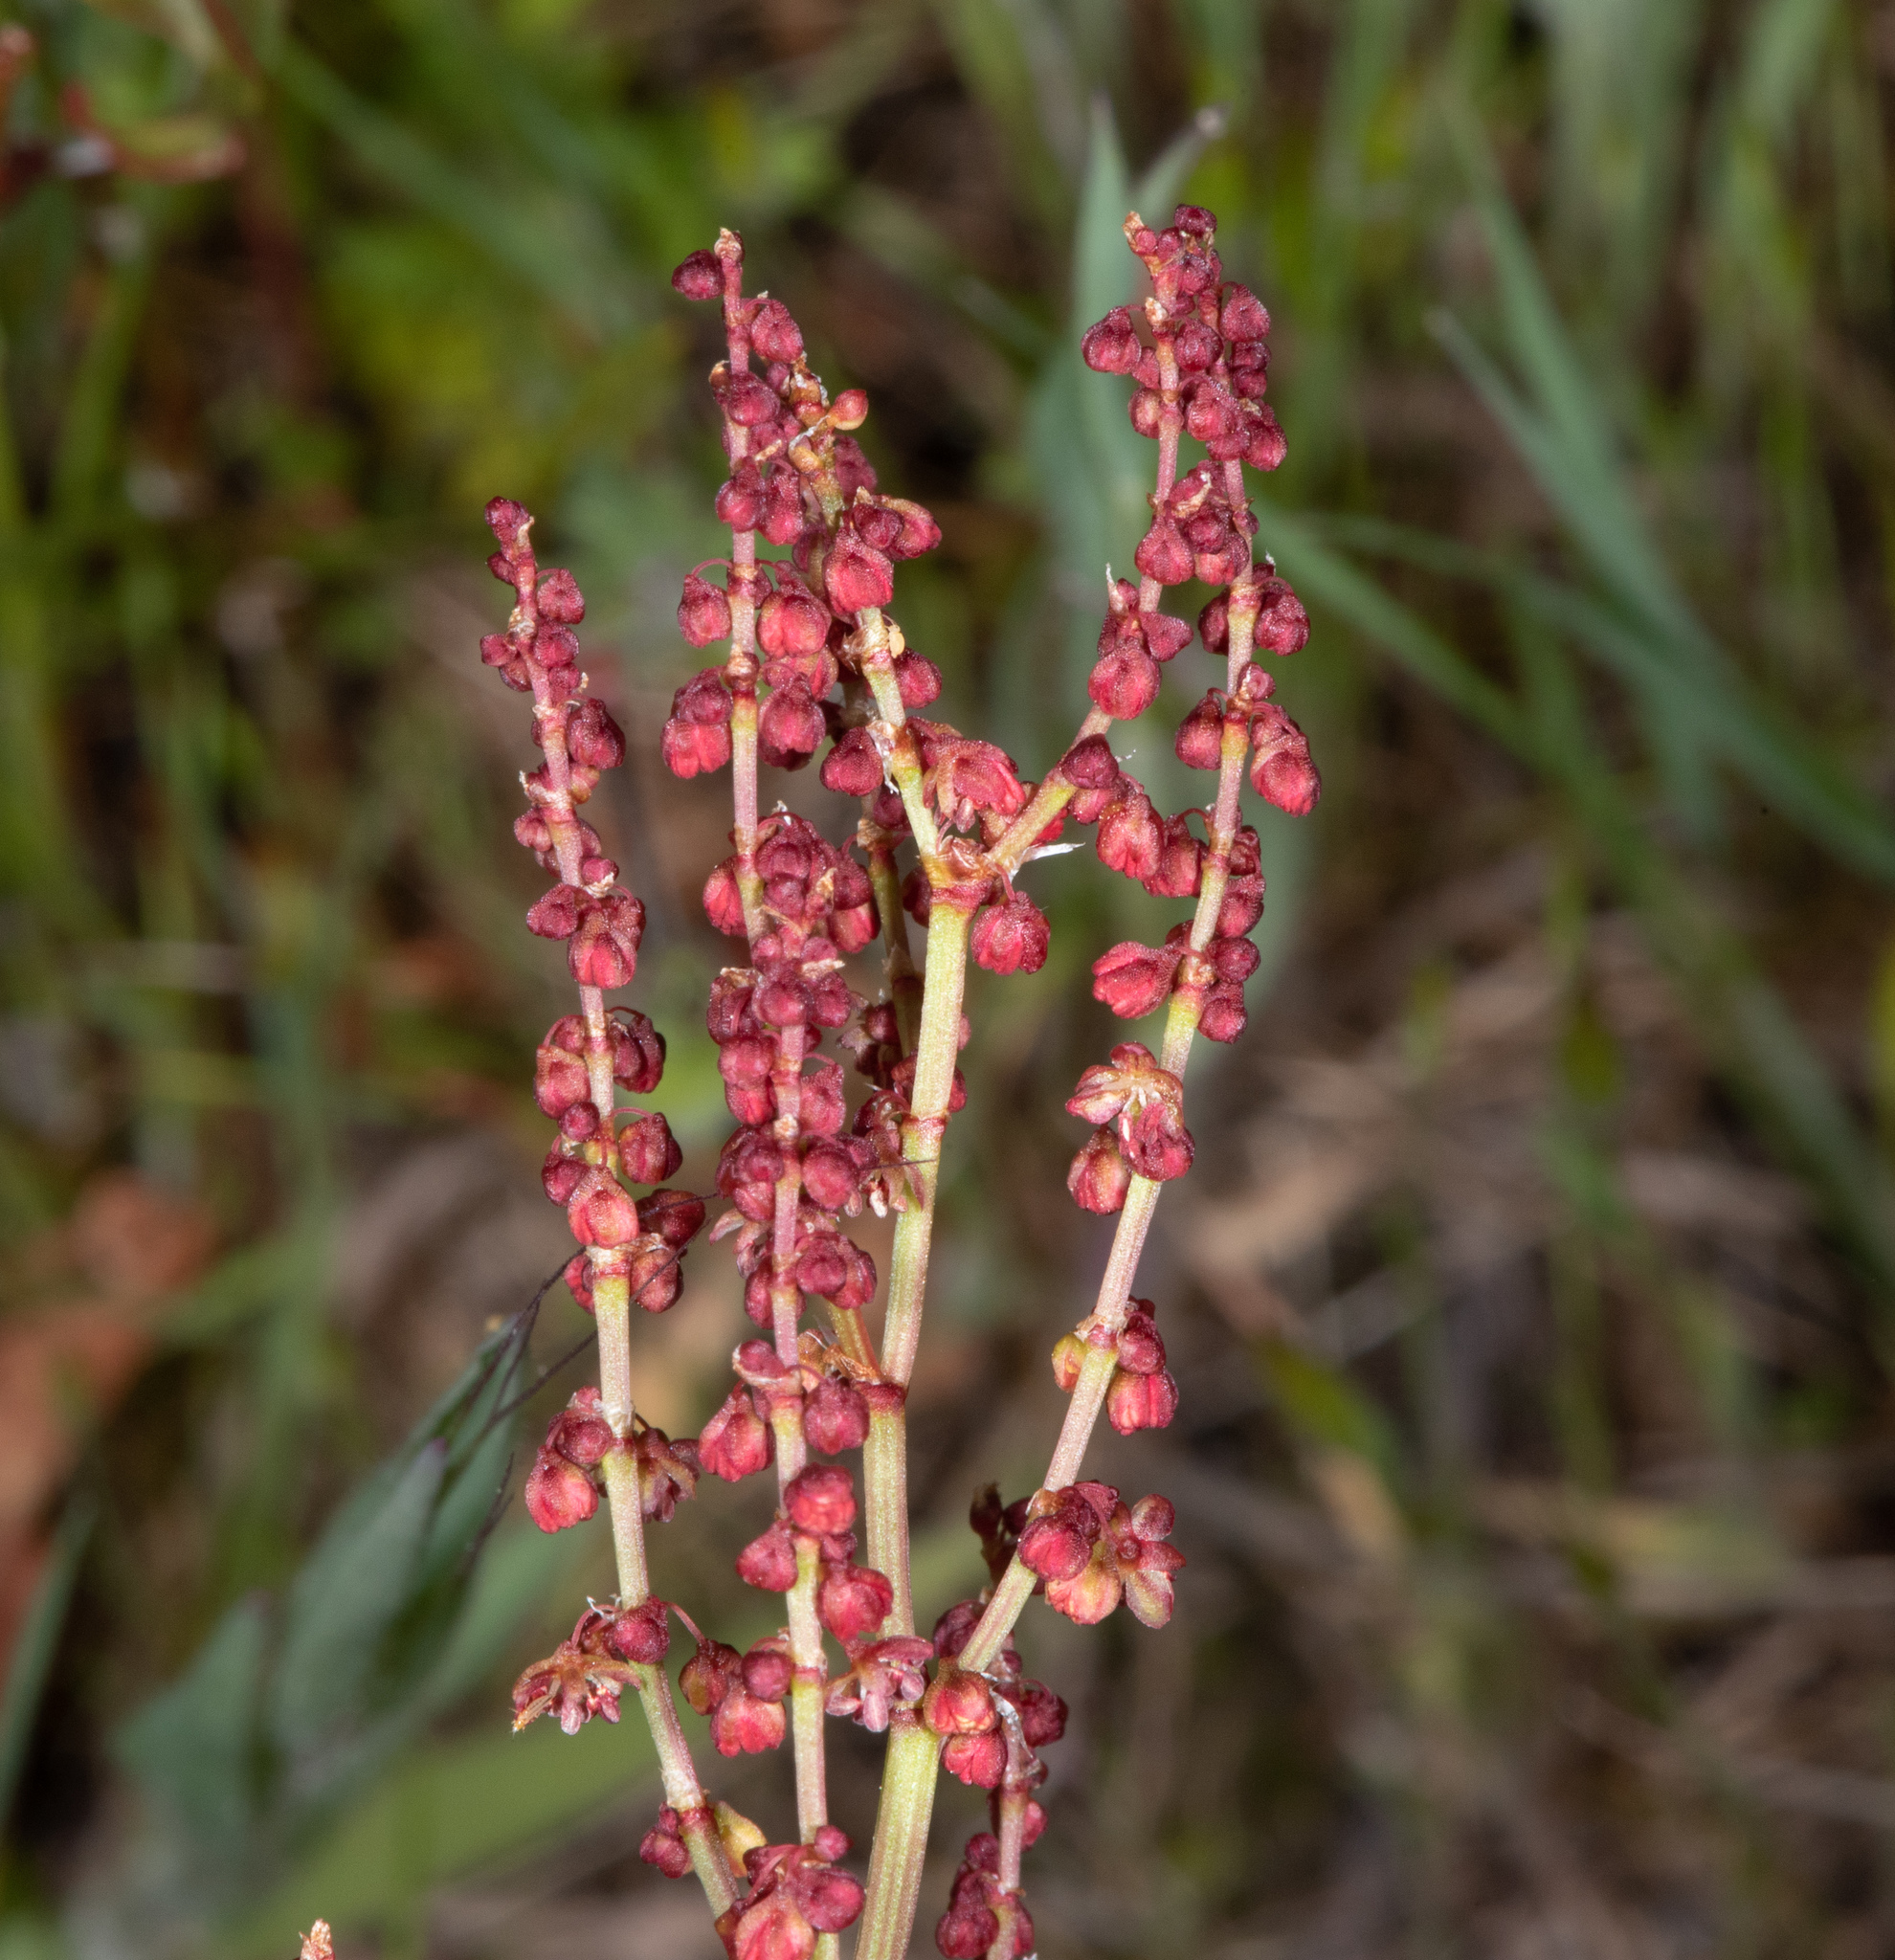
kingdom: Plantae
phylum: Tracheophyta
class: Magnoliopsida
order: Caryophyllales
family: Polygonaceae
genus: Rumex
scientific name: Rumex acetosella
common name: Common sheep sorrel
